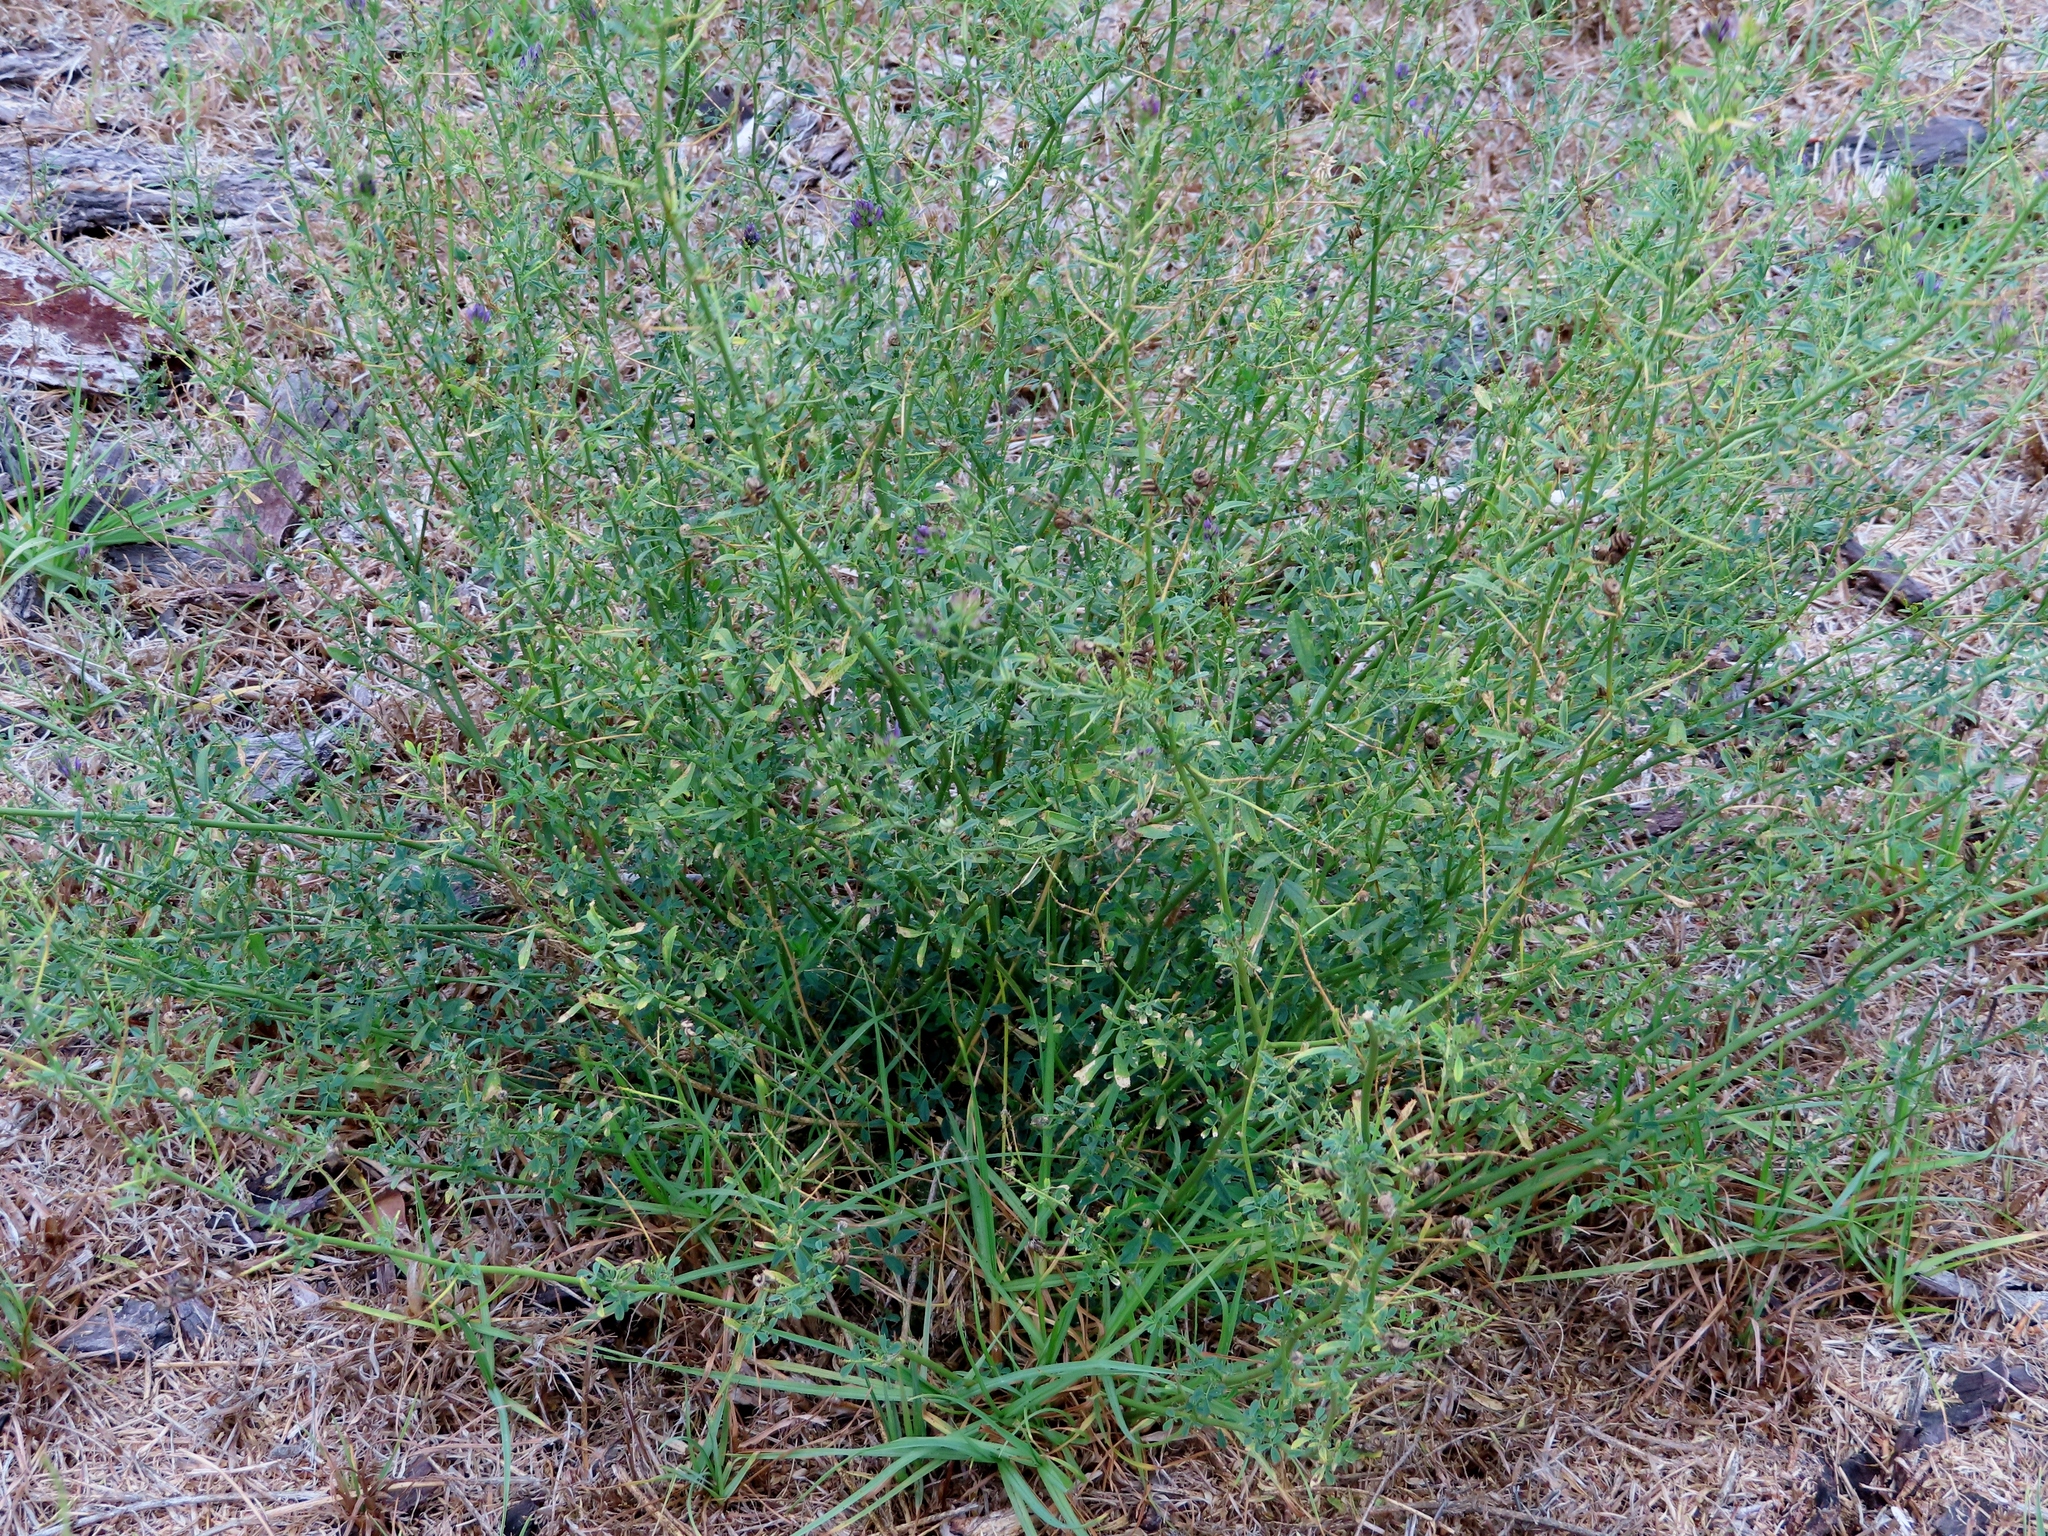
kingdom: Plantae
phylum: Tracheophyta
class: Magnoliopsida
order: Fabales
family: Fabaceae
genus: Medicago
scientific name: Medicago sativa
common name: Alfalfa
